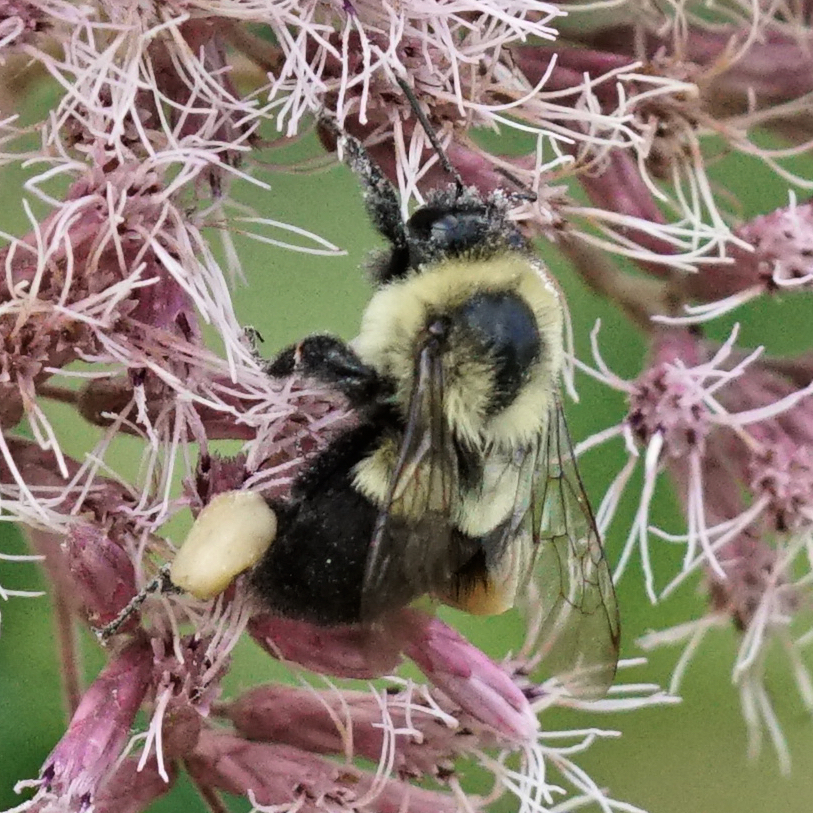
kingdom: Animalia
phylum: Arthropoda
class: Insecta
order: Hymenoptera
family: Apidae
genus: Bombus
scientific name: Bombus impatiens
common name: Common eastern bumble bee
